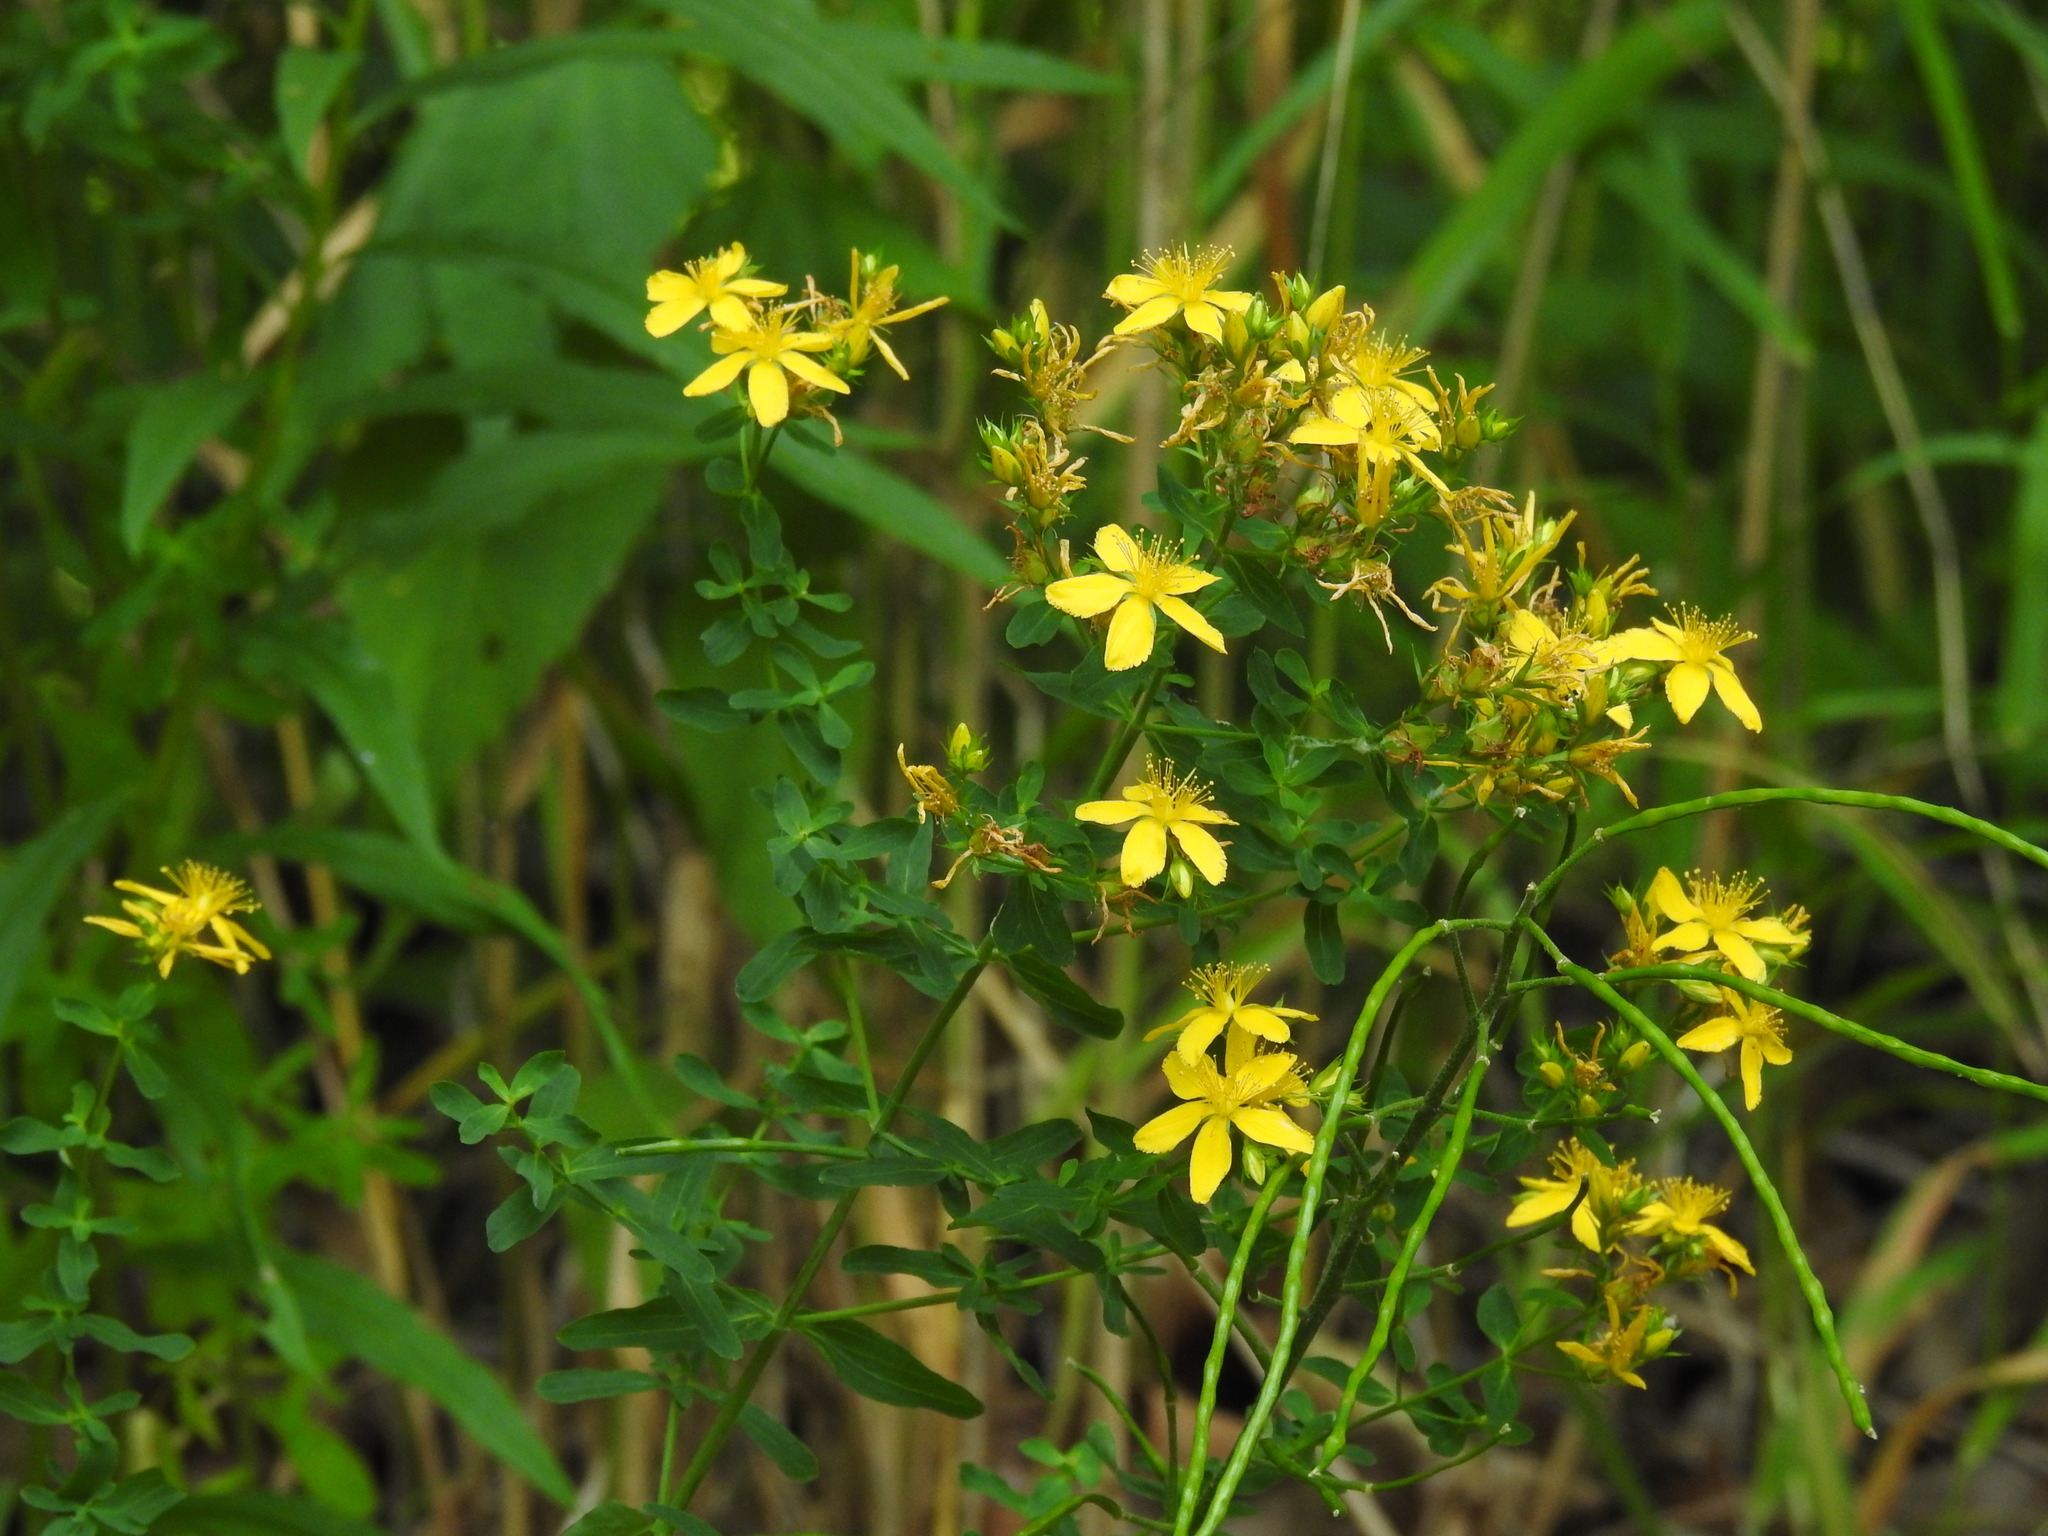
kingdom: Plantae
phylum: Tracheophyta
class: Magnoliopsida
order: Malpighiales
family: Hypericaceae
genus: Hypericum
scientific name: Hypericum perforatum
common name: Common st. johnswort
